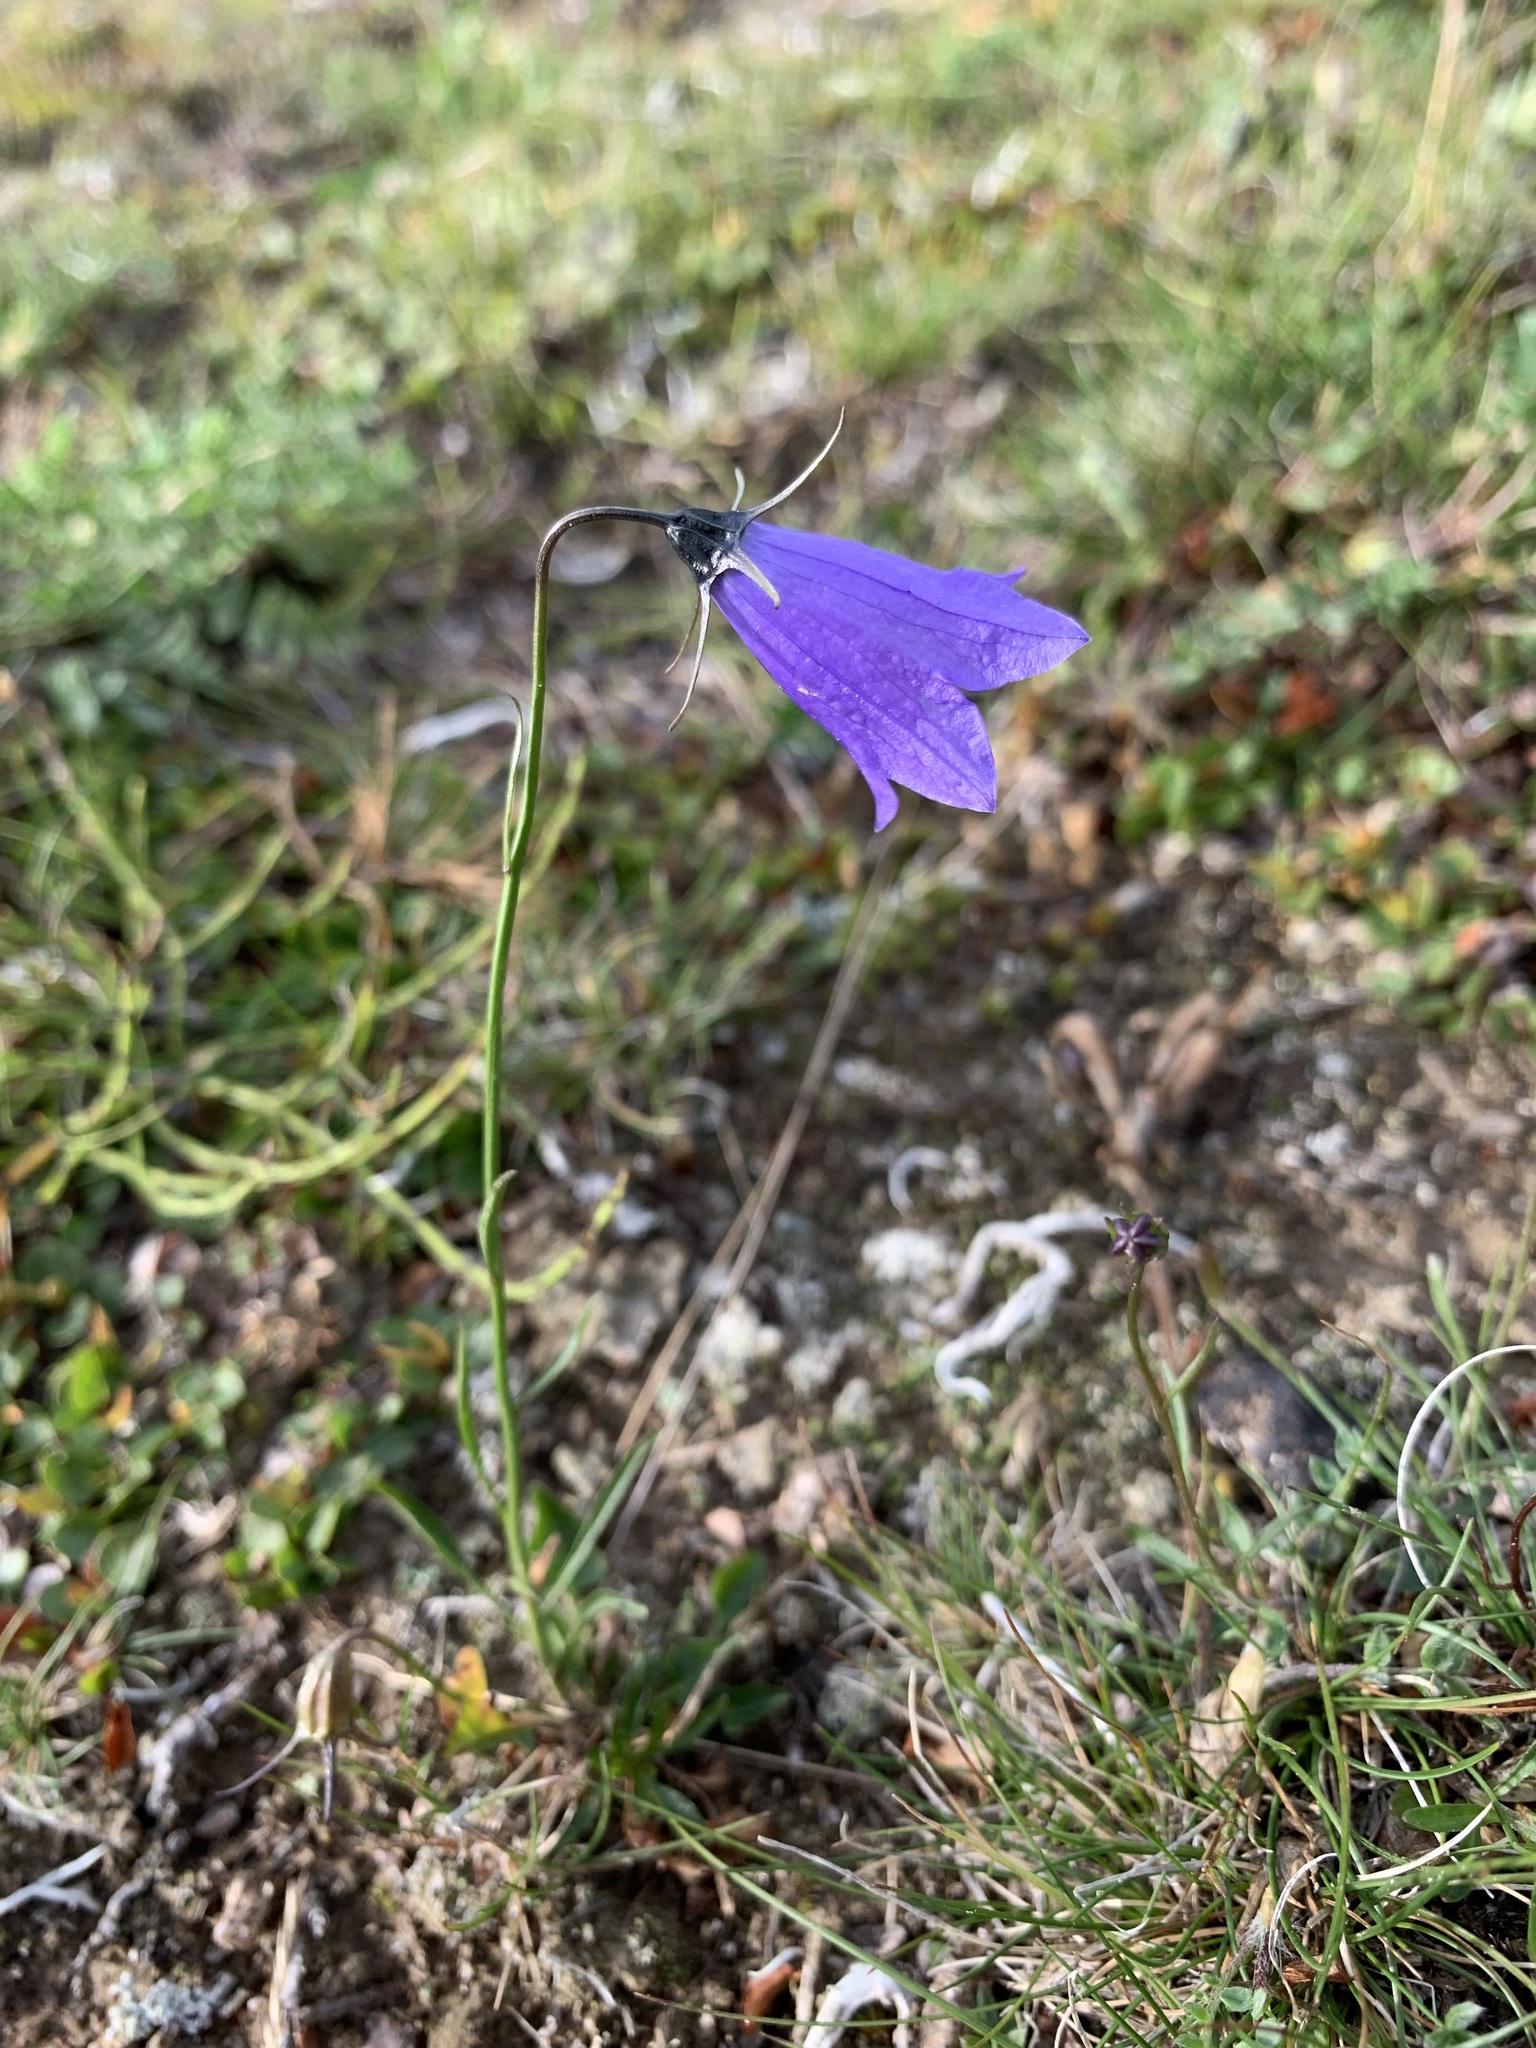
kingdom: Plantae
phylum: Tracheophyta
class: Magnoliopsida
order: Asterales
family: Campanulaceae
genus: Campanula
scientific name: Campanula rotundifolia
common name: Harebell
